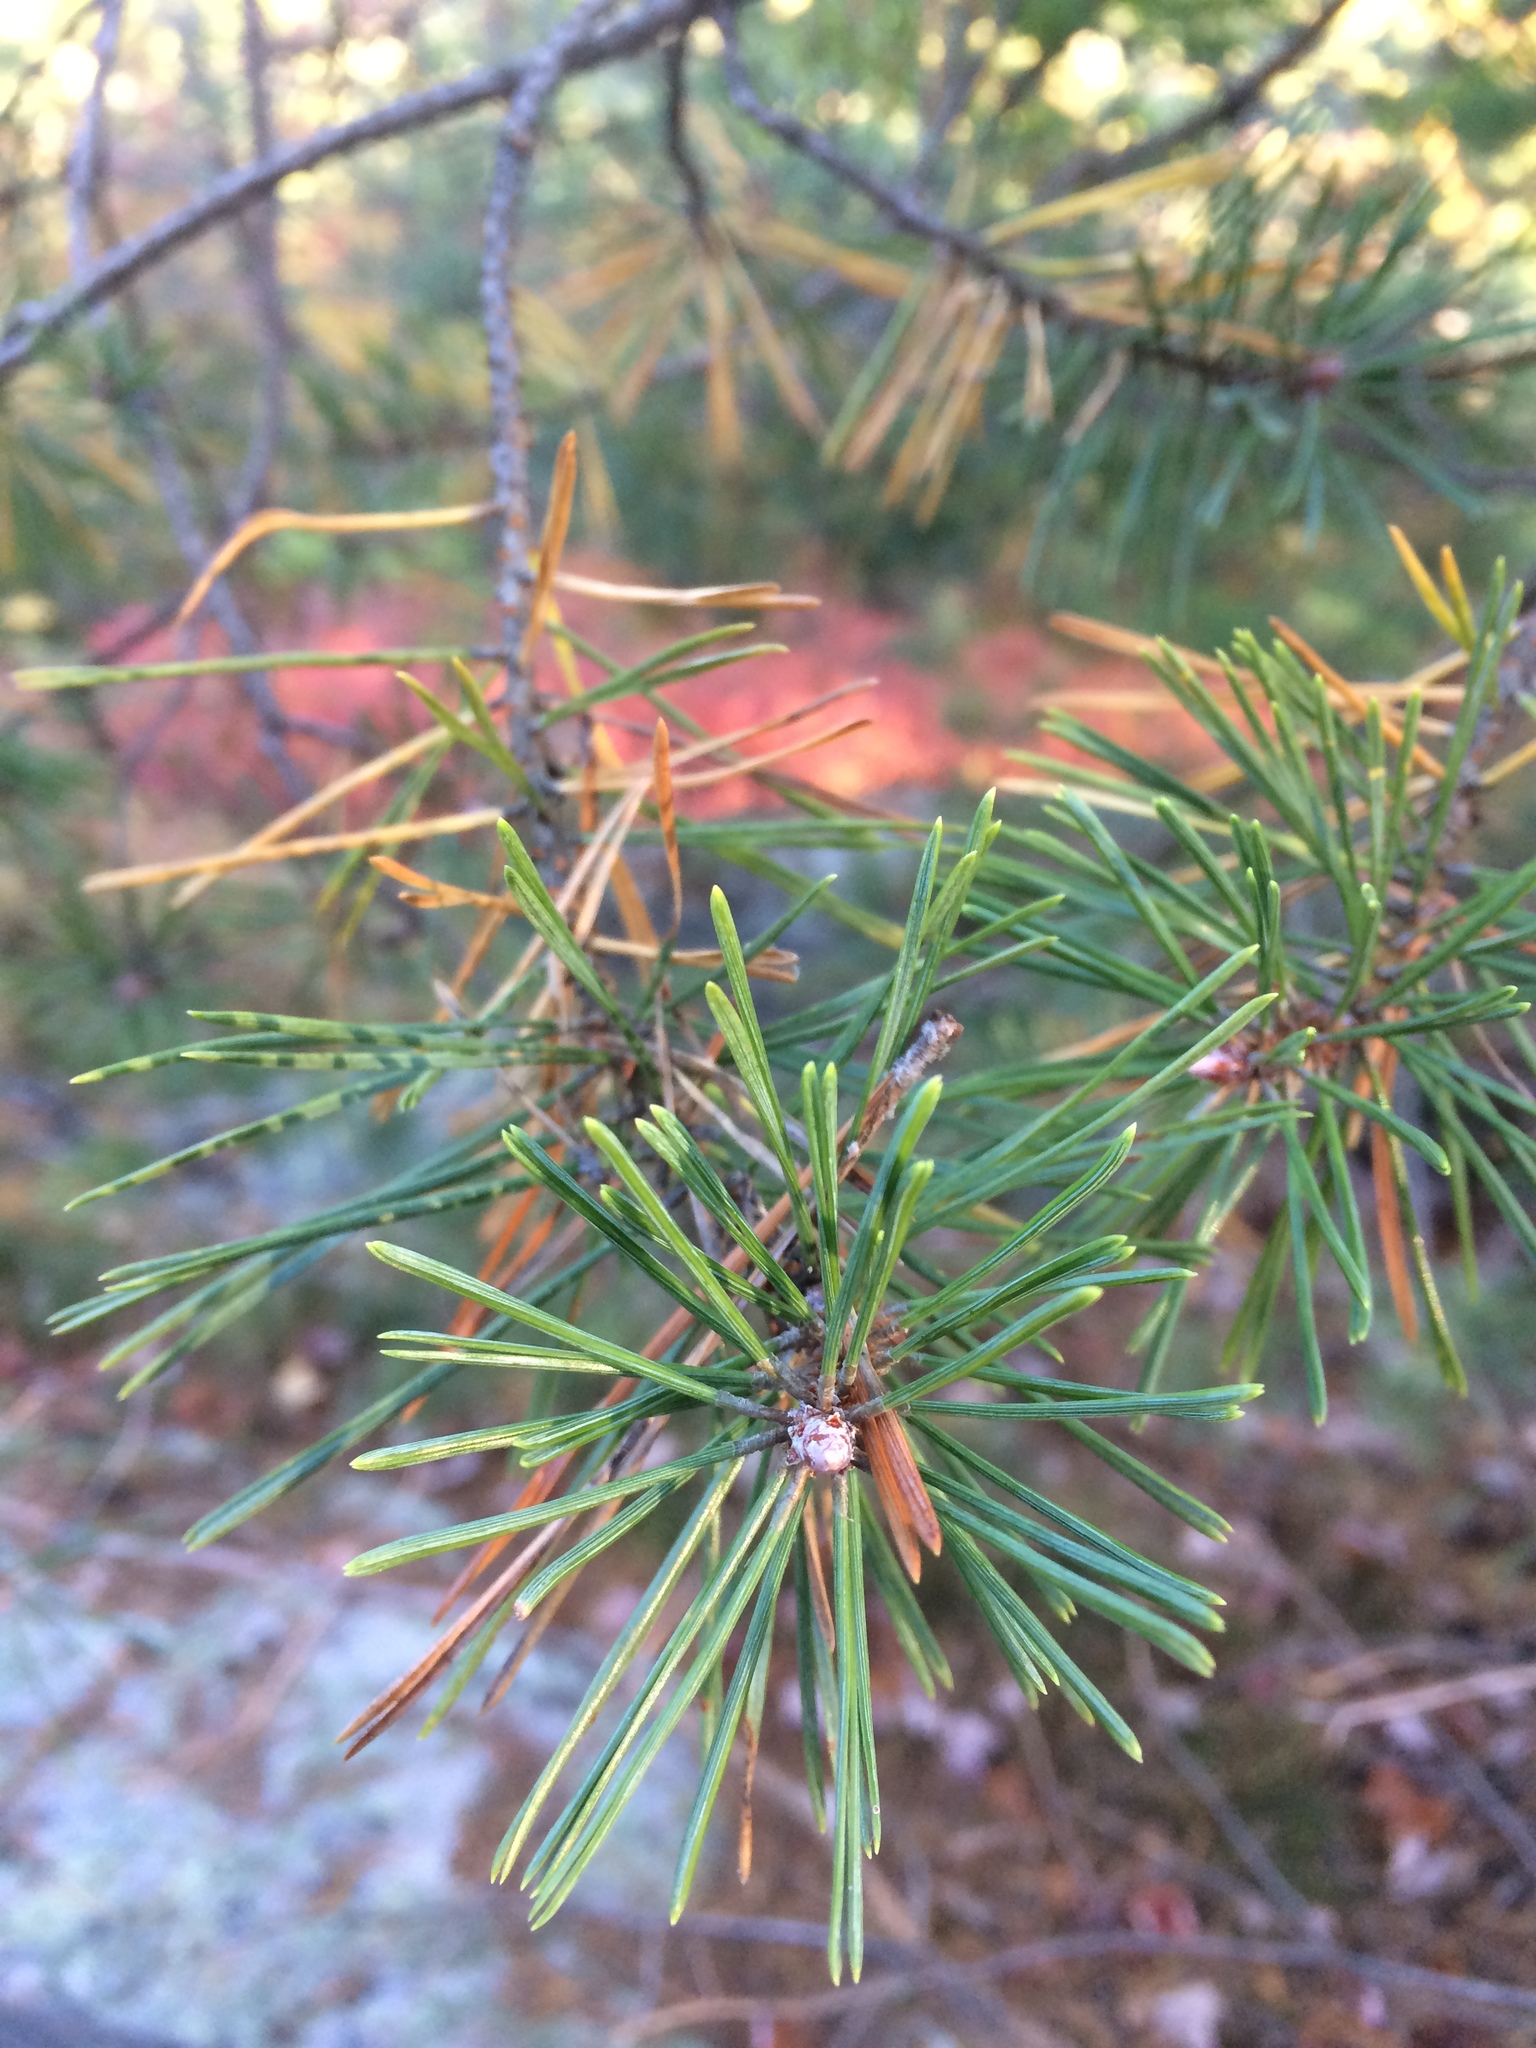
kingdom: Plantae
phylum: Tracheophyta
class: Pinopsida
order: Pinales
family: Pinaceae
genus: Pinus
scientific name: Pinus sylvestris
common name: Scots pine
